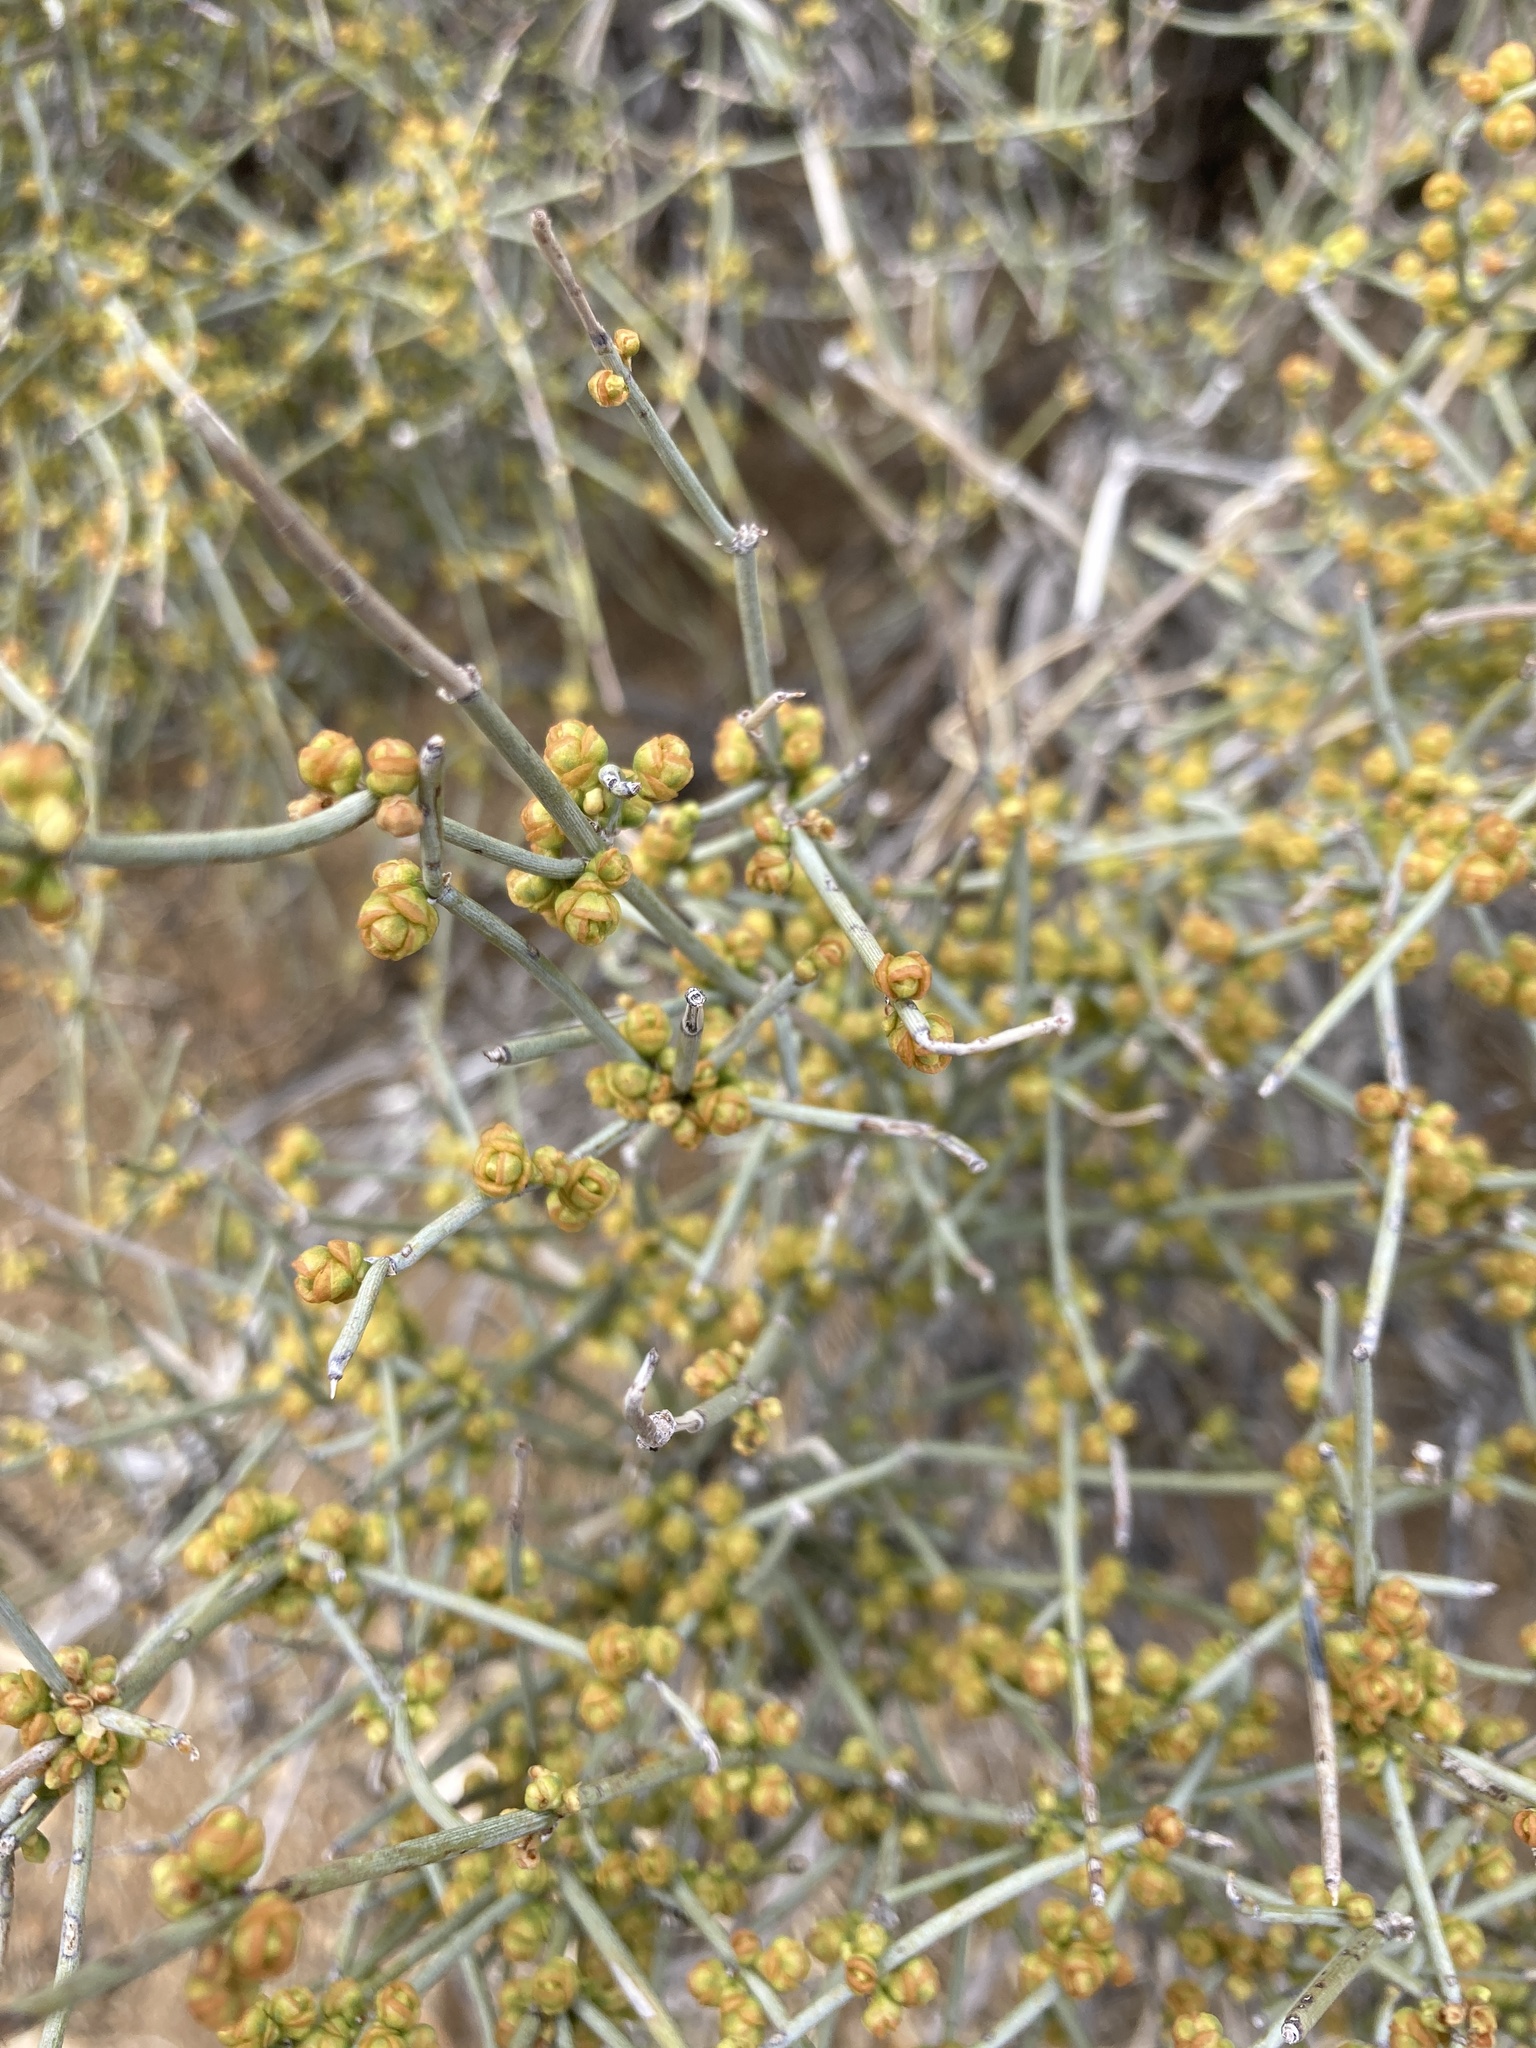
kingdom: Plantae
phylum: Tracheophyta
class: Gnetopsida
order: Ephedrales
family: Ephedraceae
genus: Ephedra
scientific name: Ephedra aspera
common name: Boundary ephedra
